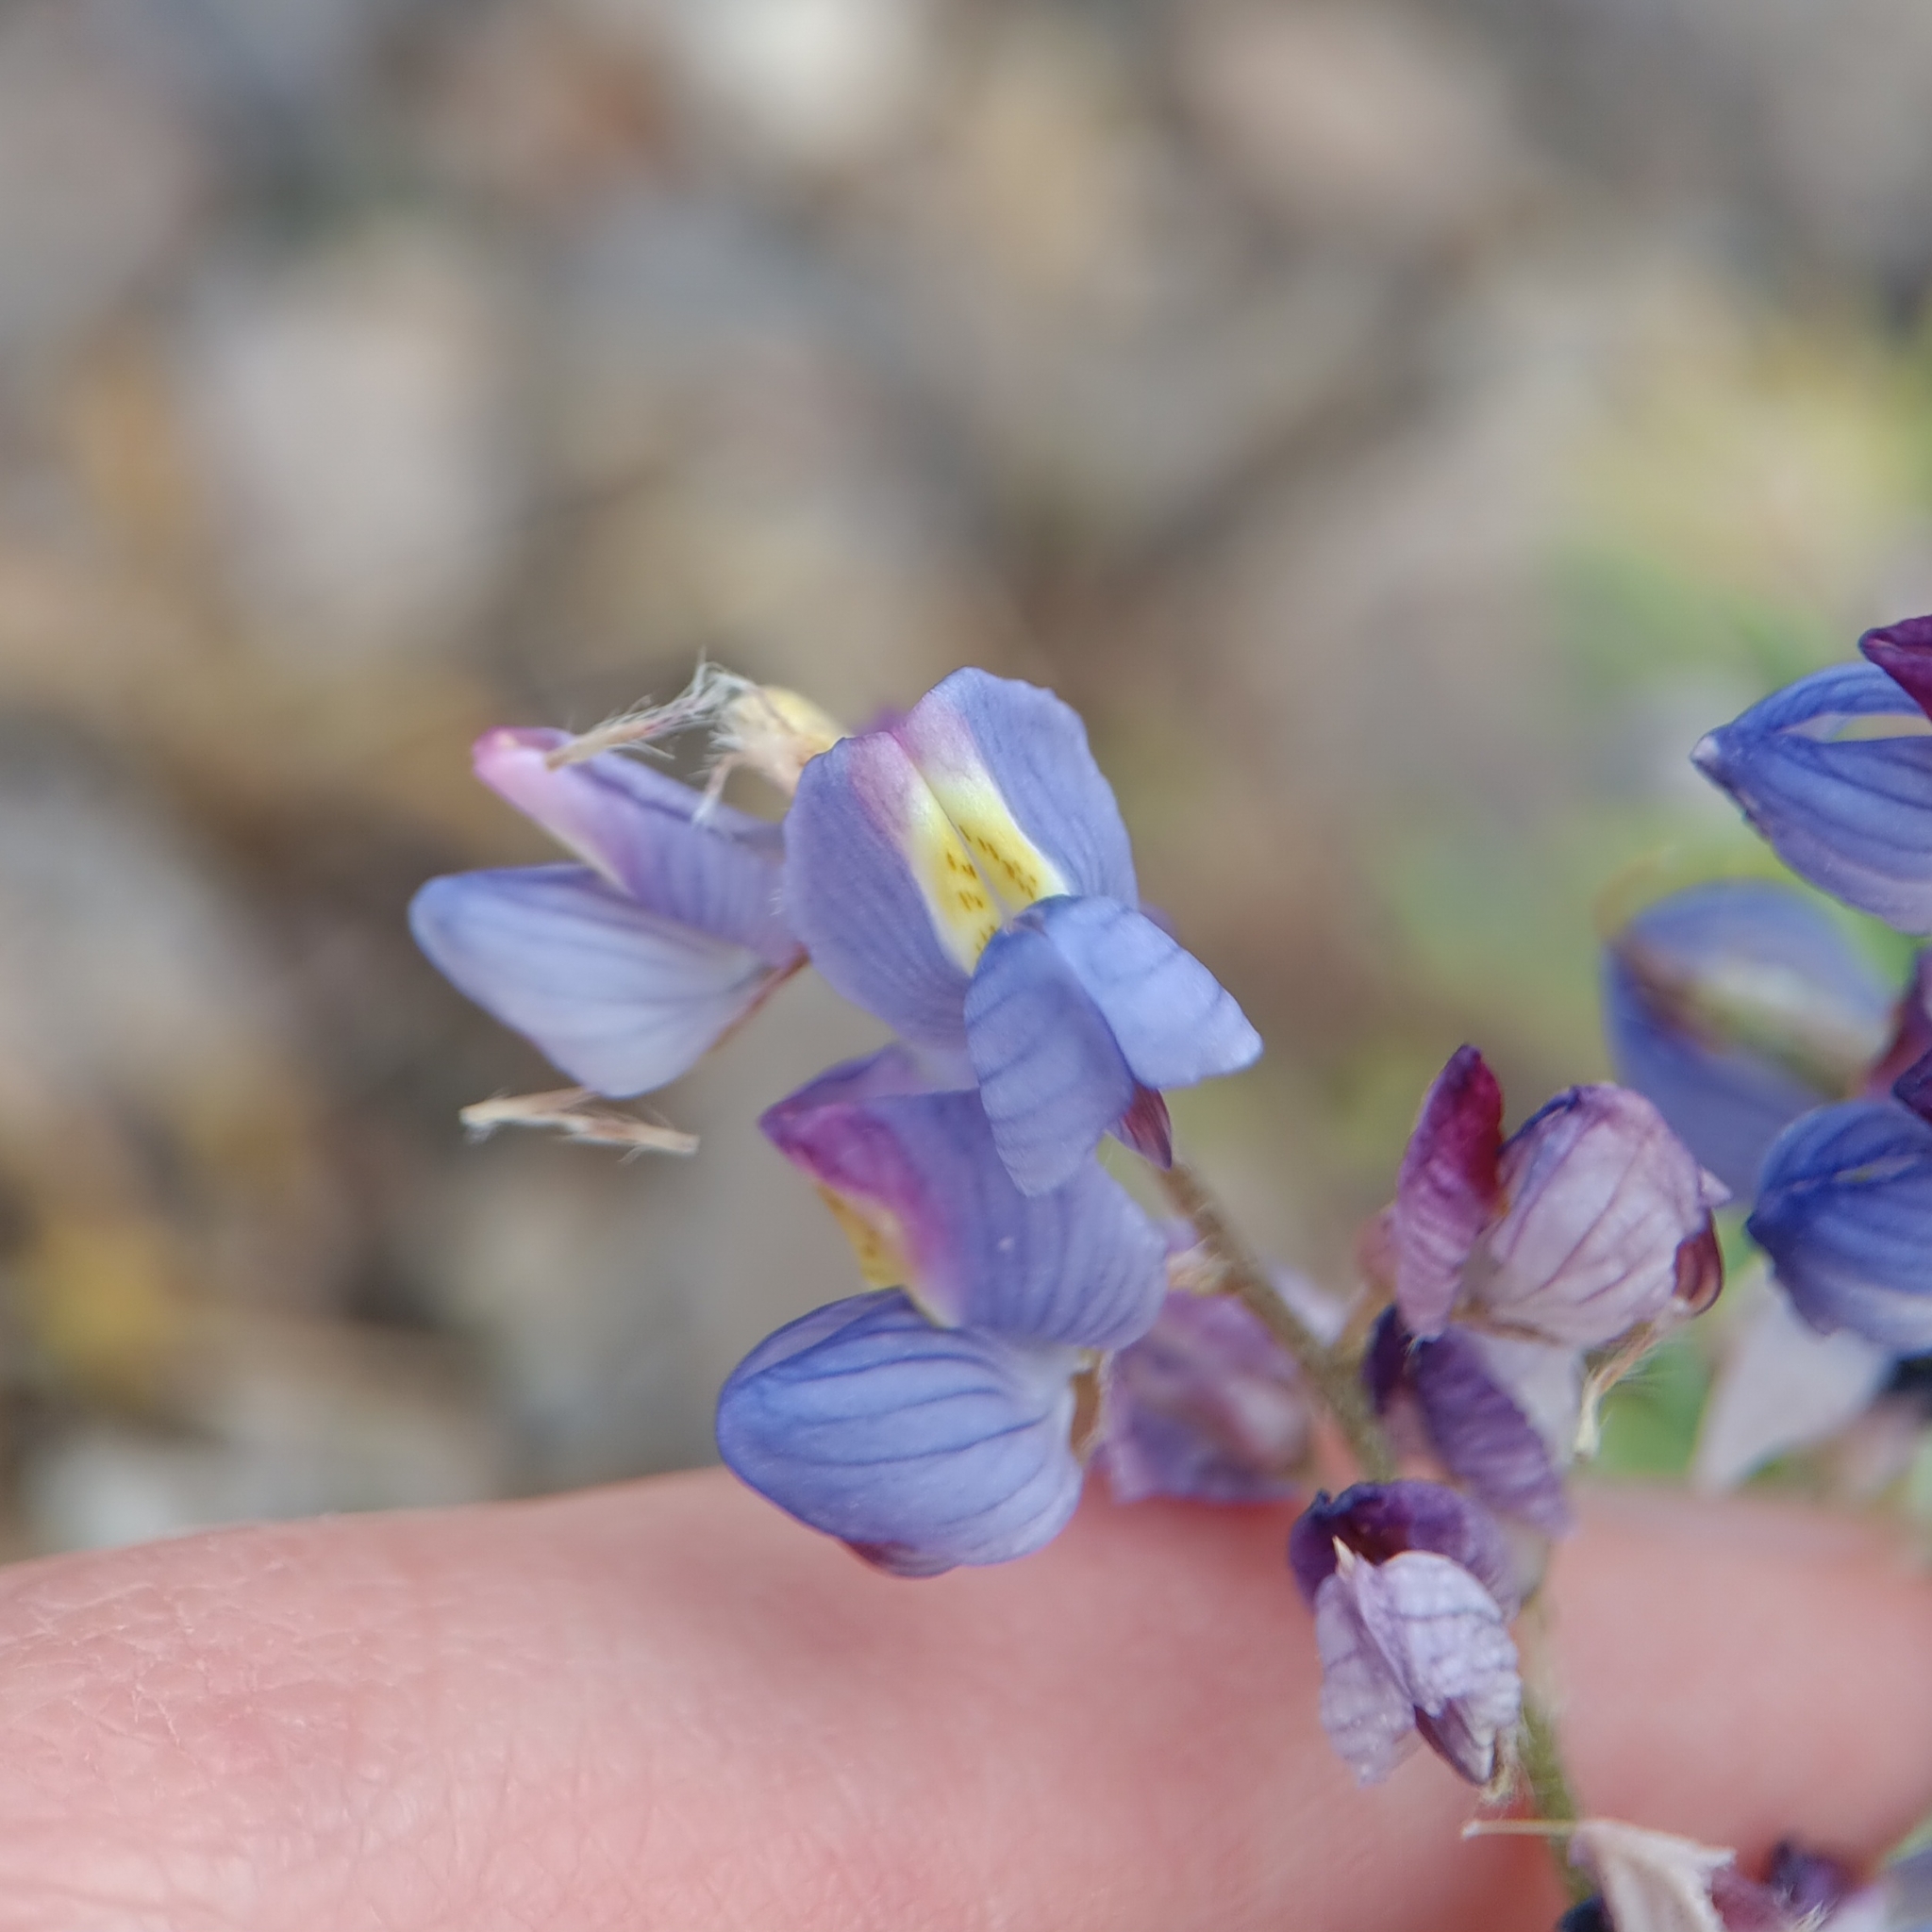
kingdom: Plantae
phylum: Tracheophyta
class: Magnoliopsida
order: Fabales
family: Fabaceae
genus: Lupinus
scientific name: Lupinus sparsiflorus
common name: Coulter's lupine
